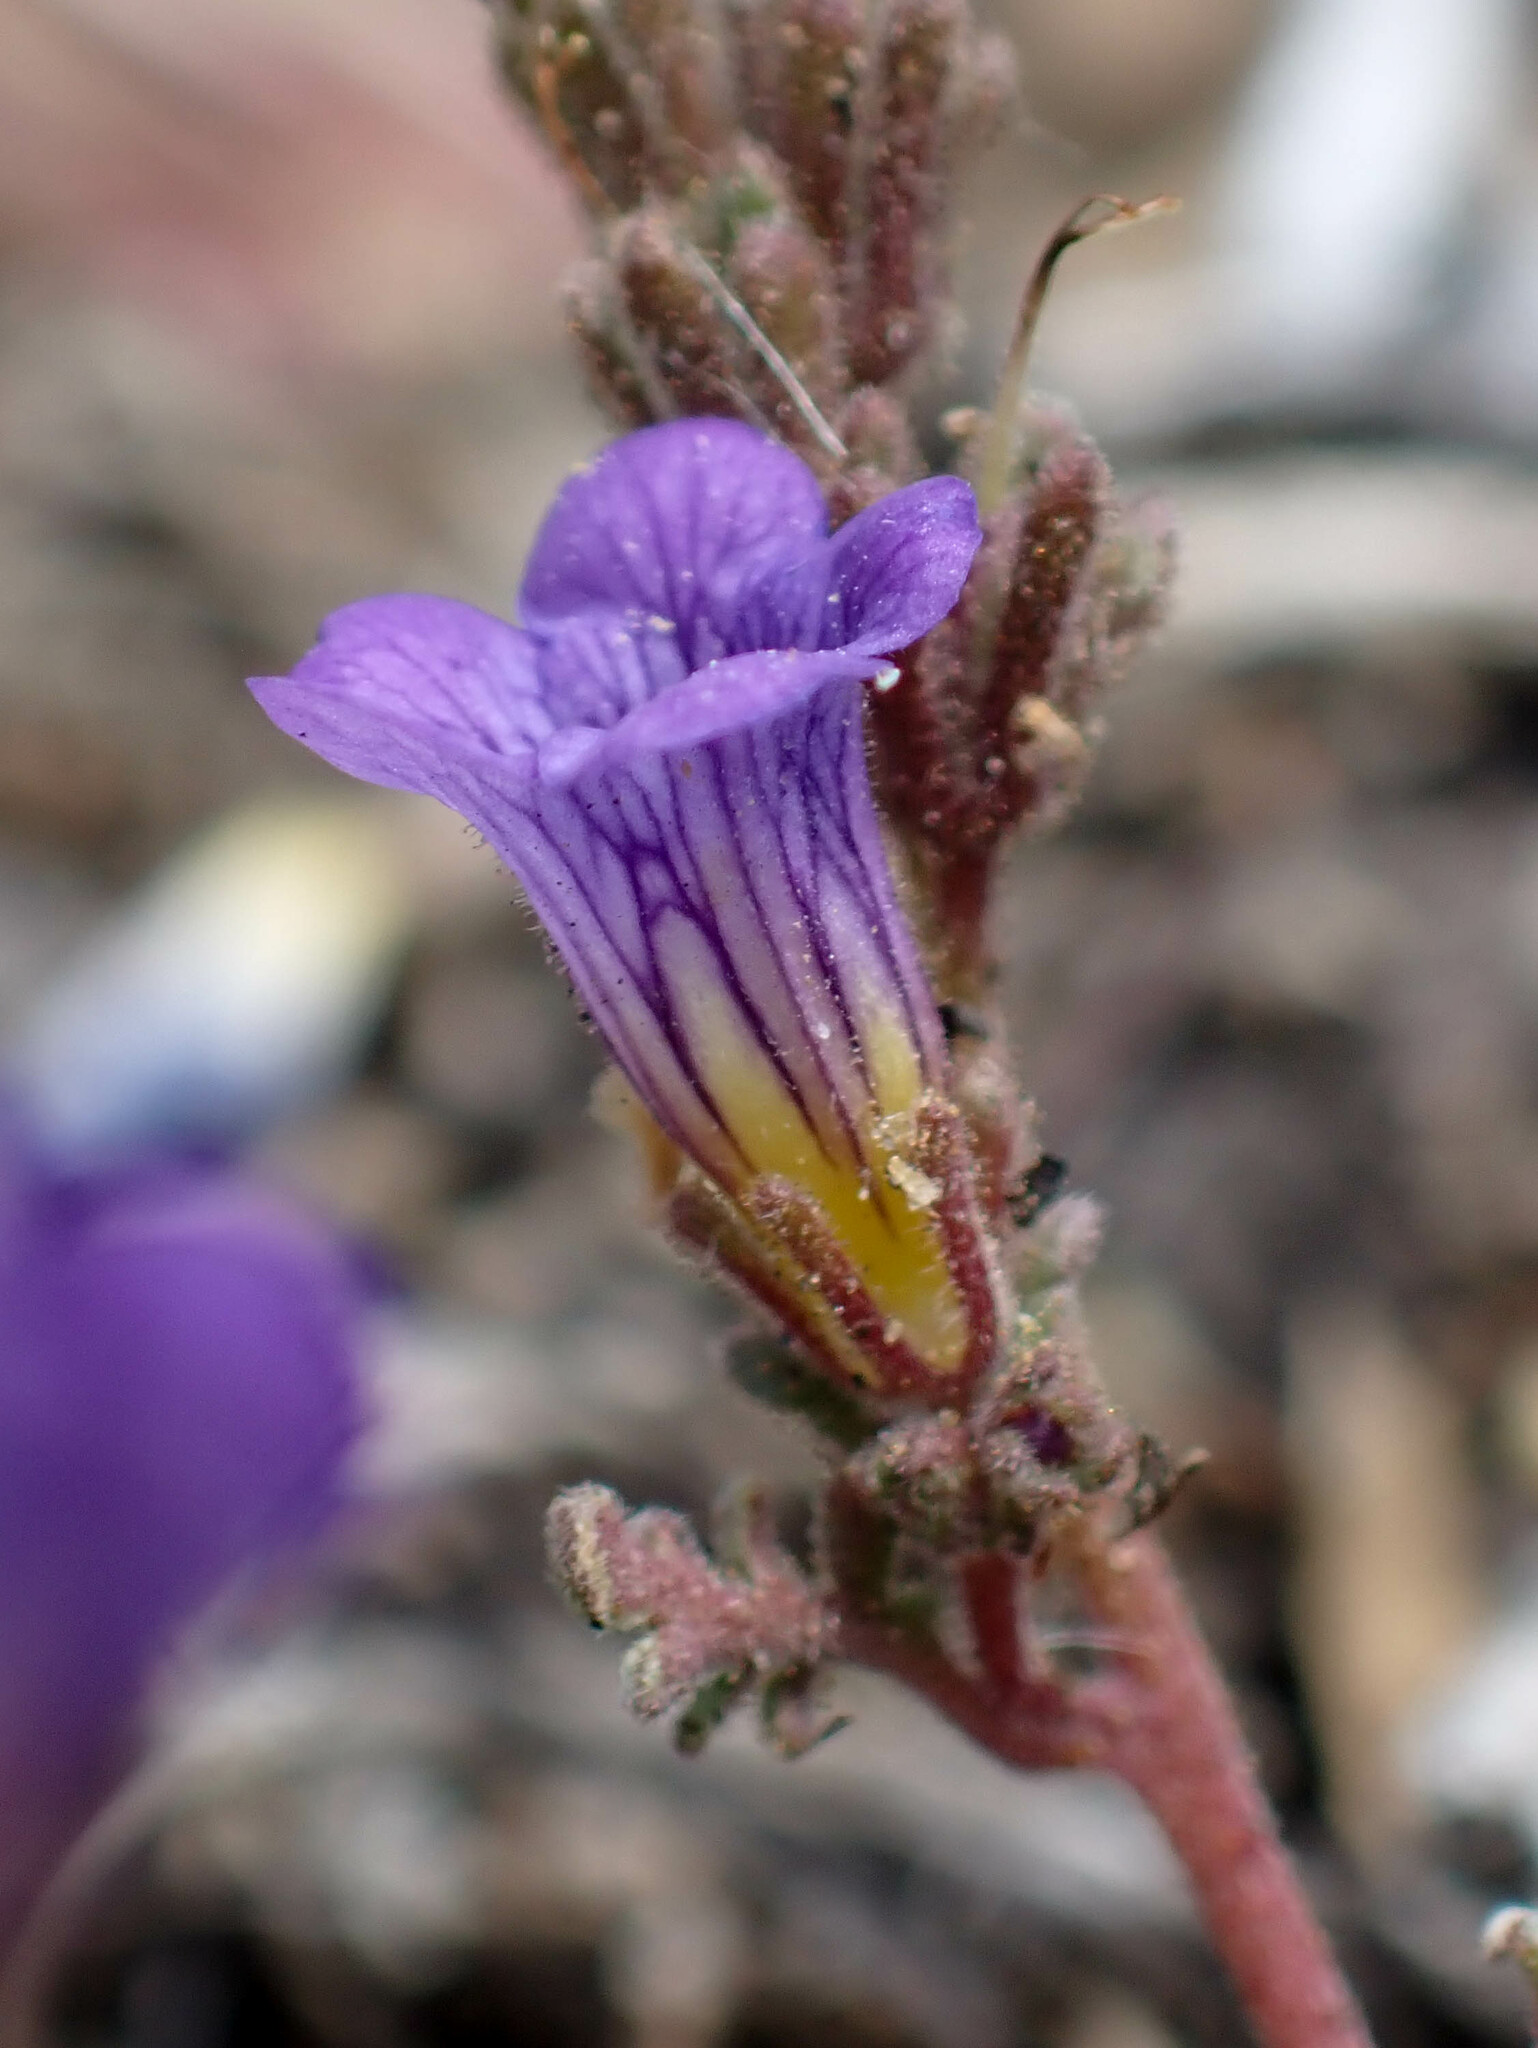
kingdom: Plantae
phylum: Tracheophyta
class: Magnoliopsida
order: Boraginales
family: Hydrophyllaceae
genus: Phacelia
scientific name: Phacelia fremontii
